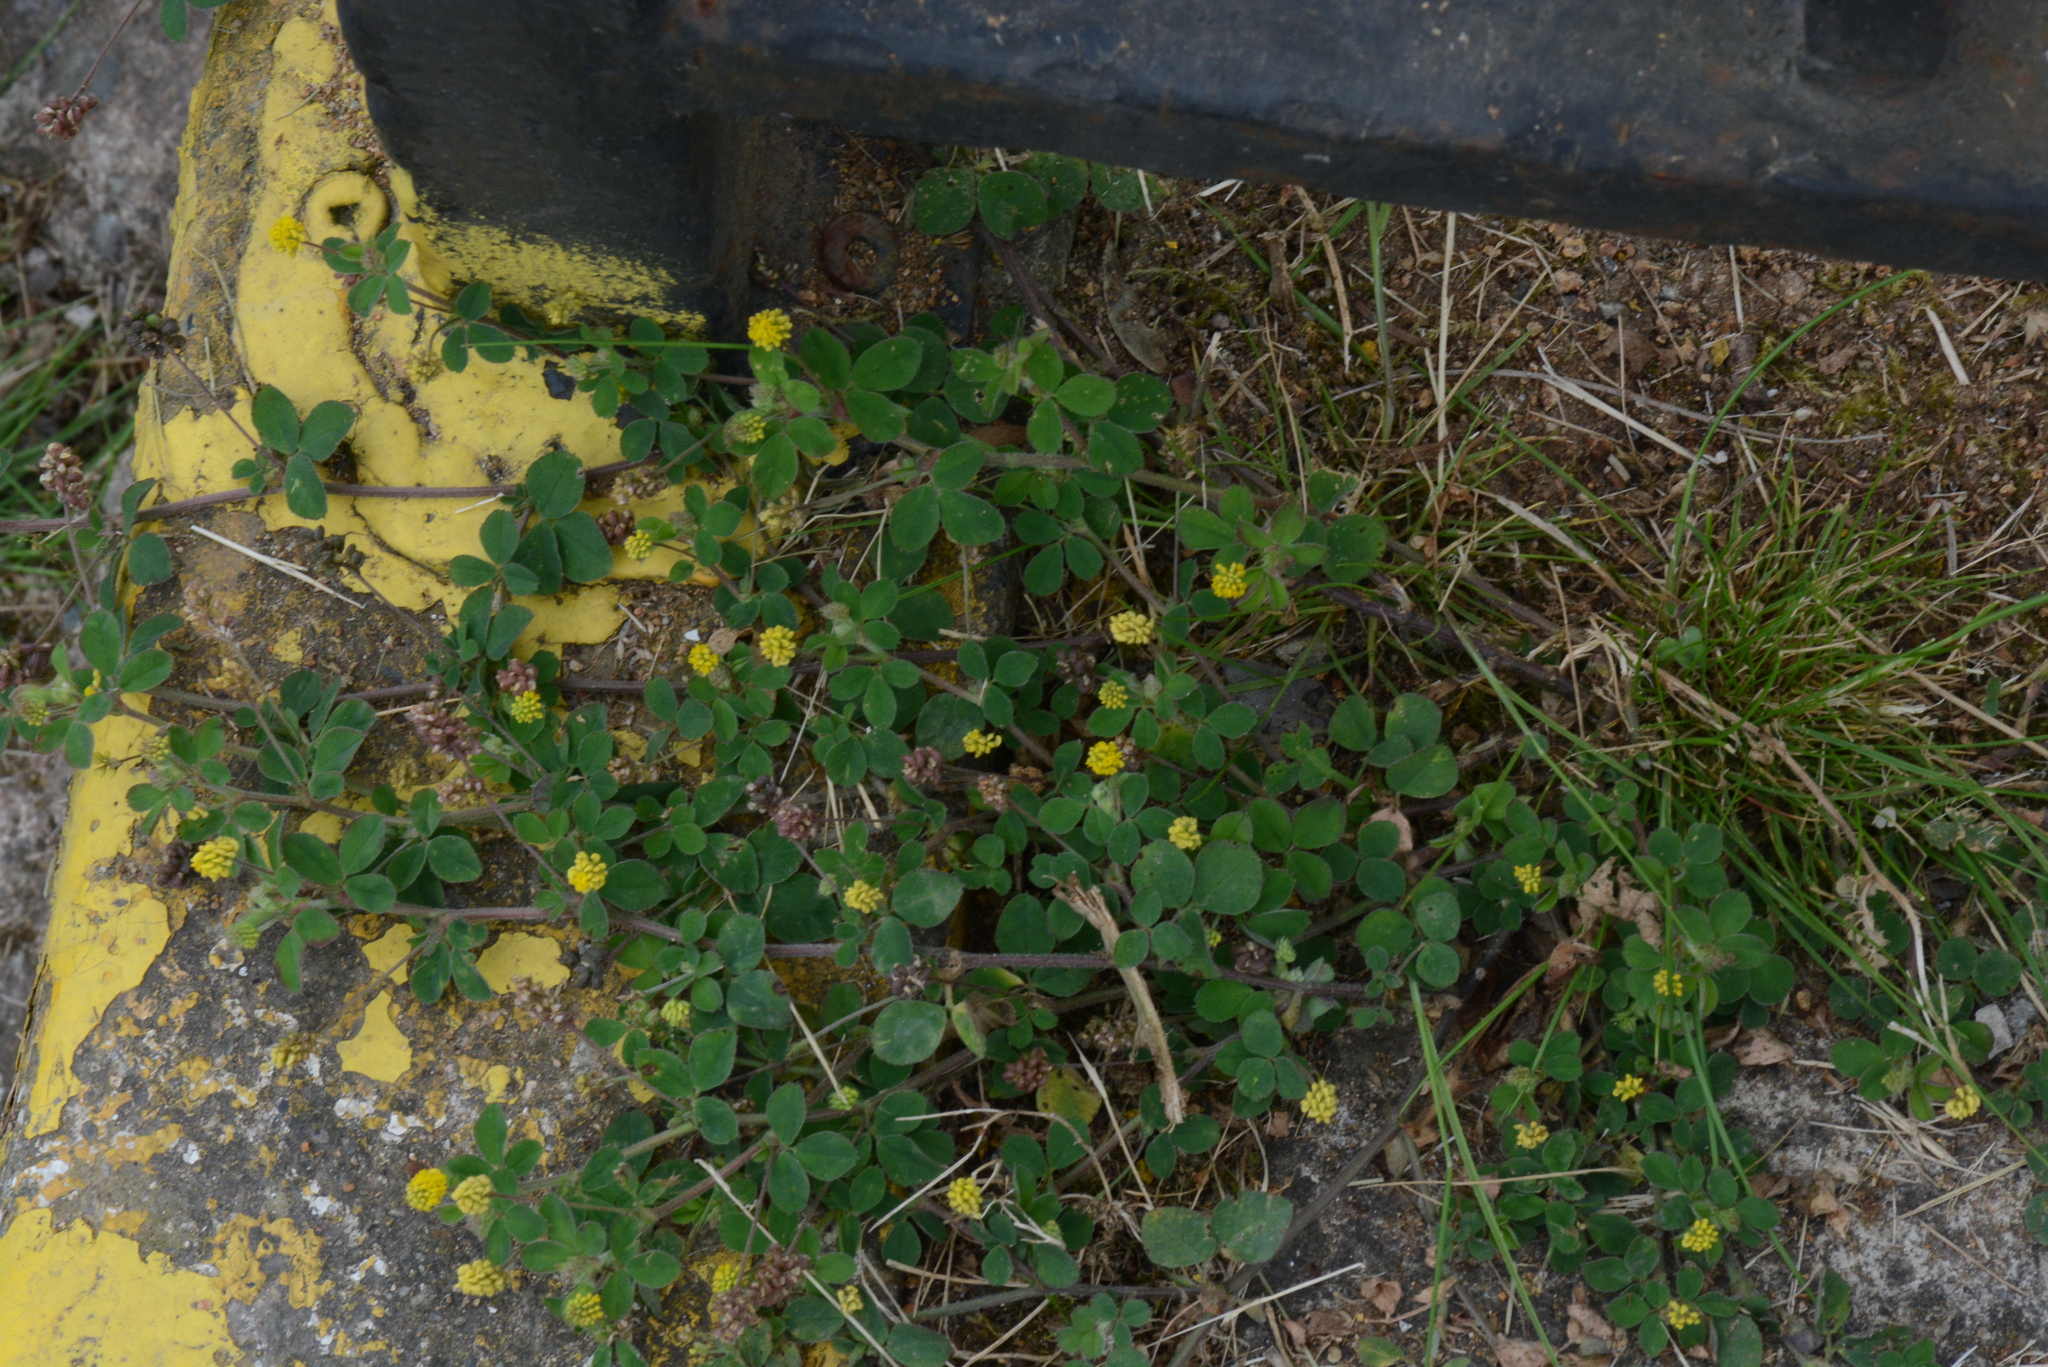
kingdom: Plantae
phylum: Tracheophyta
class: Magnoliopsida
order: Fabales
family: Fabaceae
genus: Medicago
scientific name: Medicago lupulina
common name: Black medick
